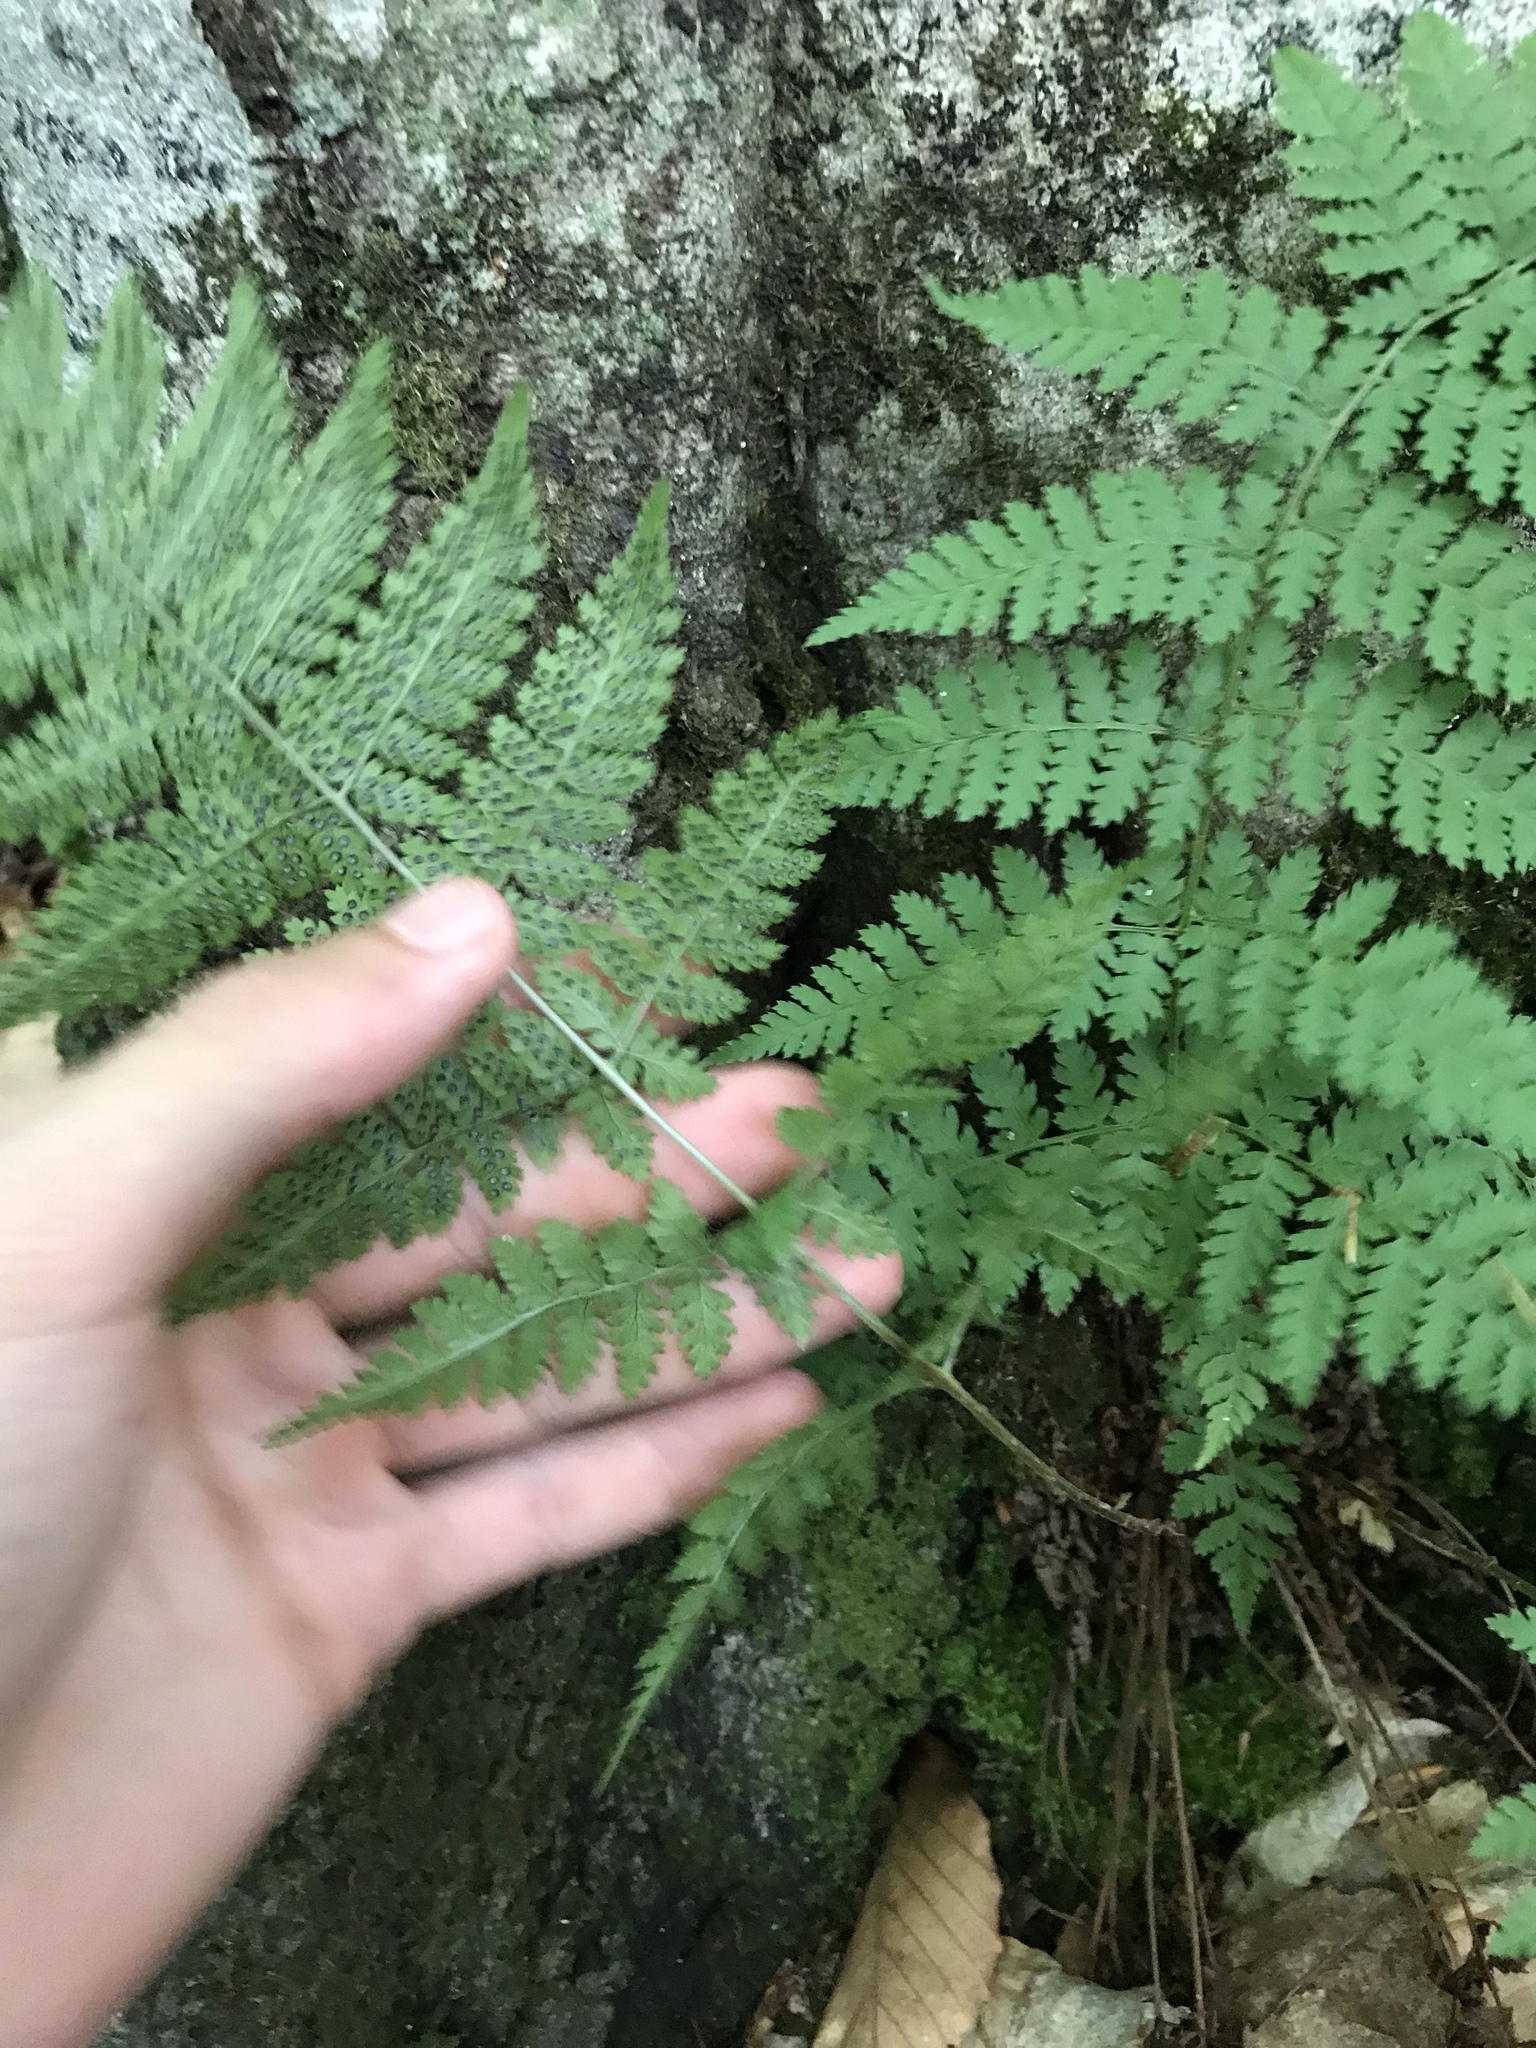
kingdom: Plantae
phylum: Tracheophyta
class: Polypodiopsida
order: Polypodiales
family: Dryopteridaceae
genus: Dryopteris
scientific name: Dryopteris carthusiana
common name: Narrow buckler-fern
